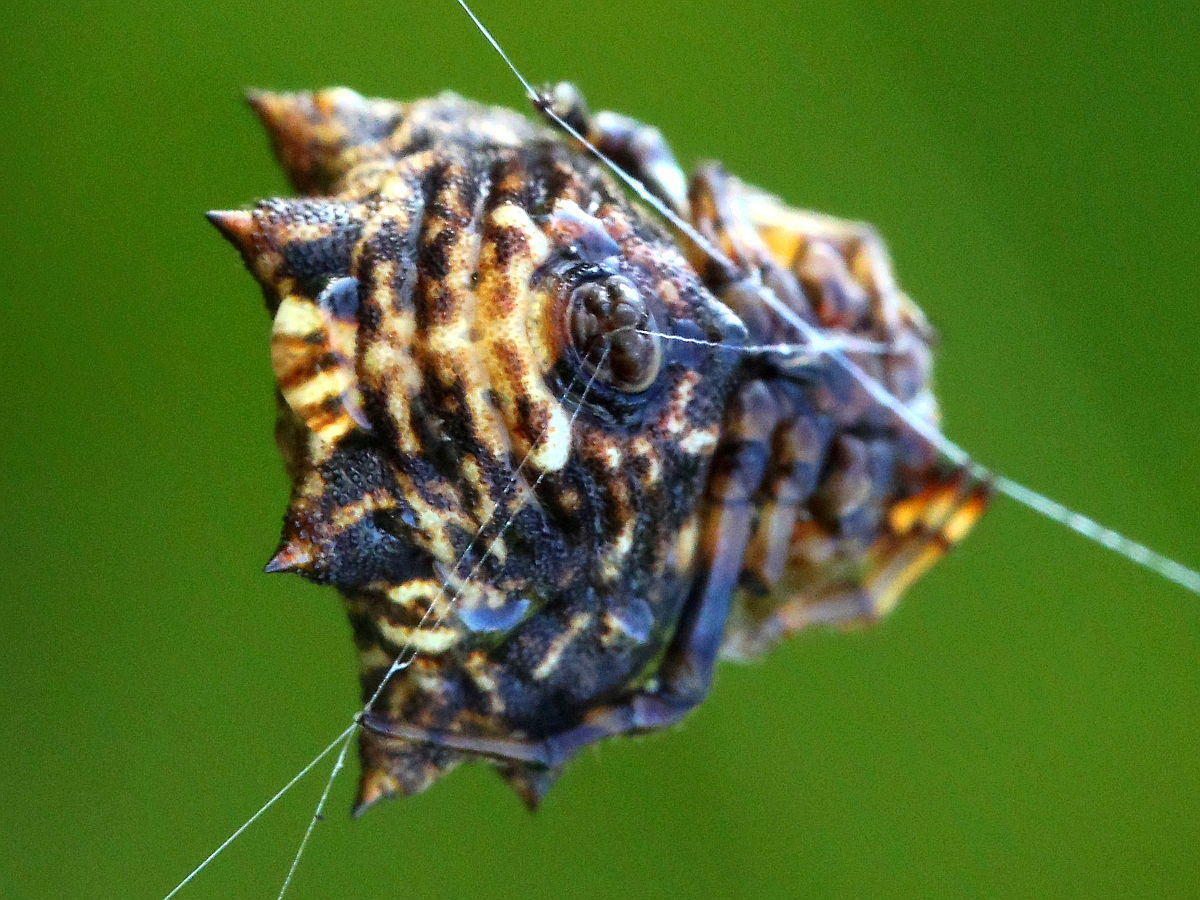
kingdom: Animalia
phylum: Arthropoda
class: Arachnida
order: Araneae
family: Araneidae
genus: Thelacantha
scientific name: Thelacantha brevispina
